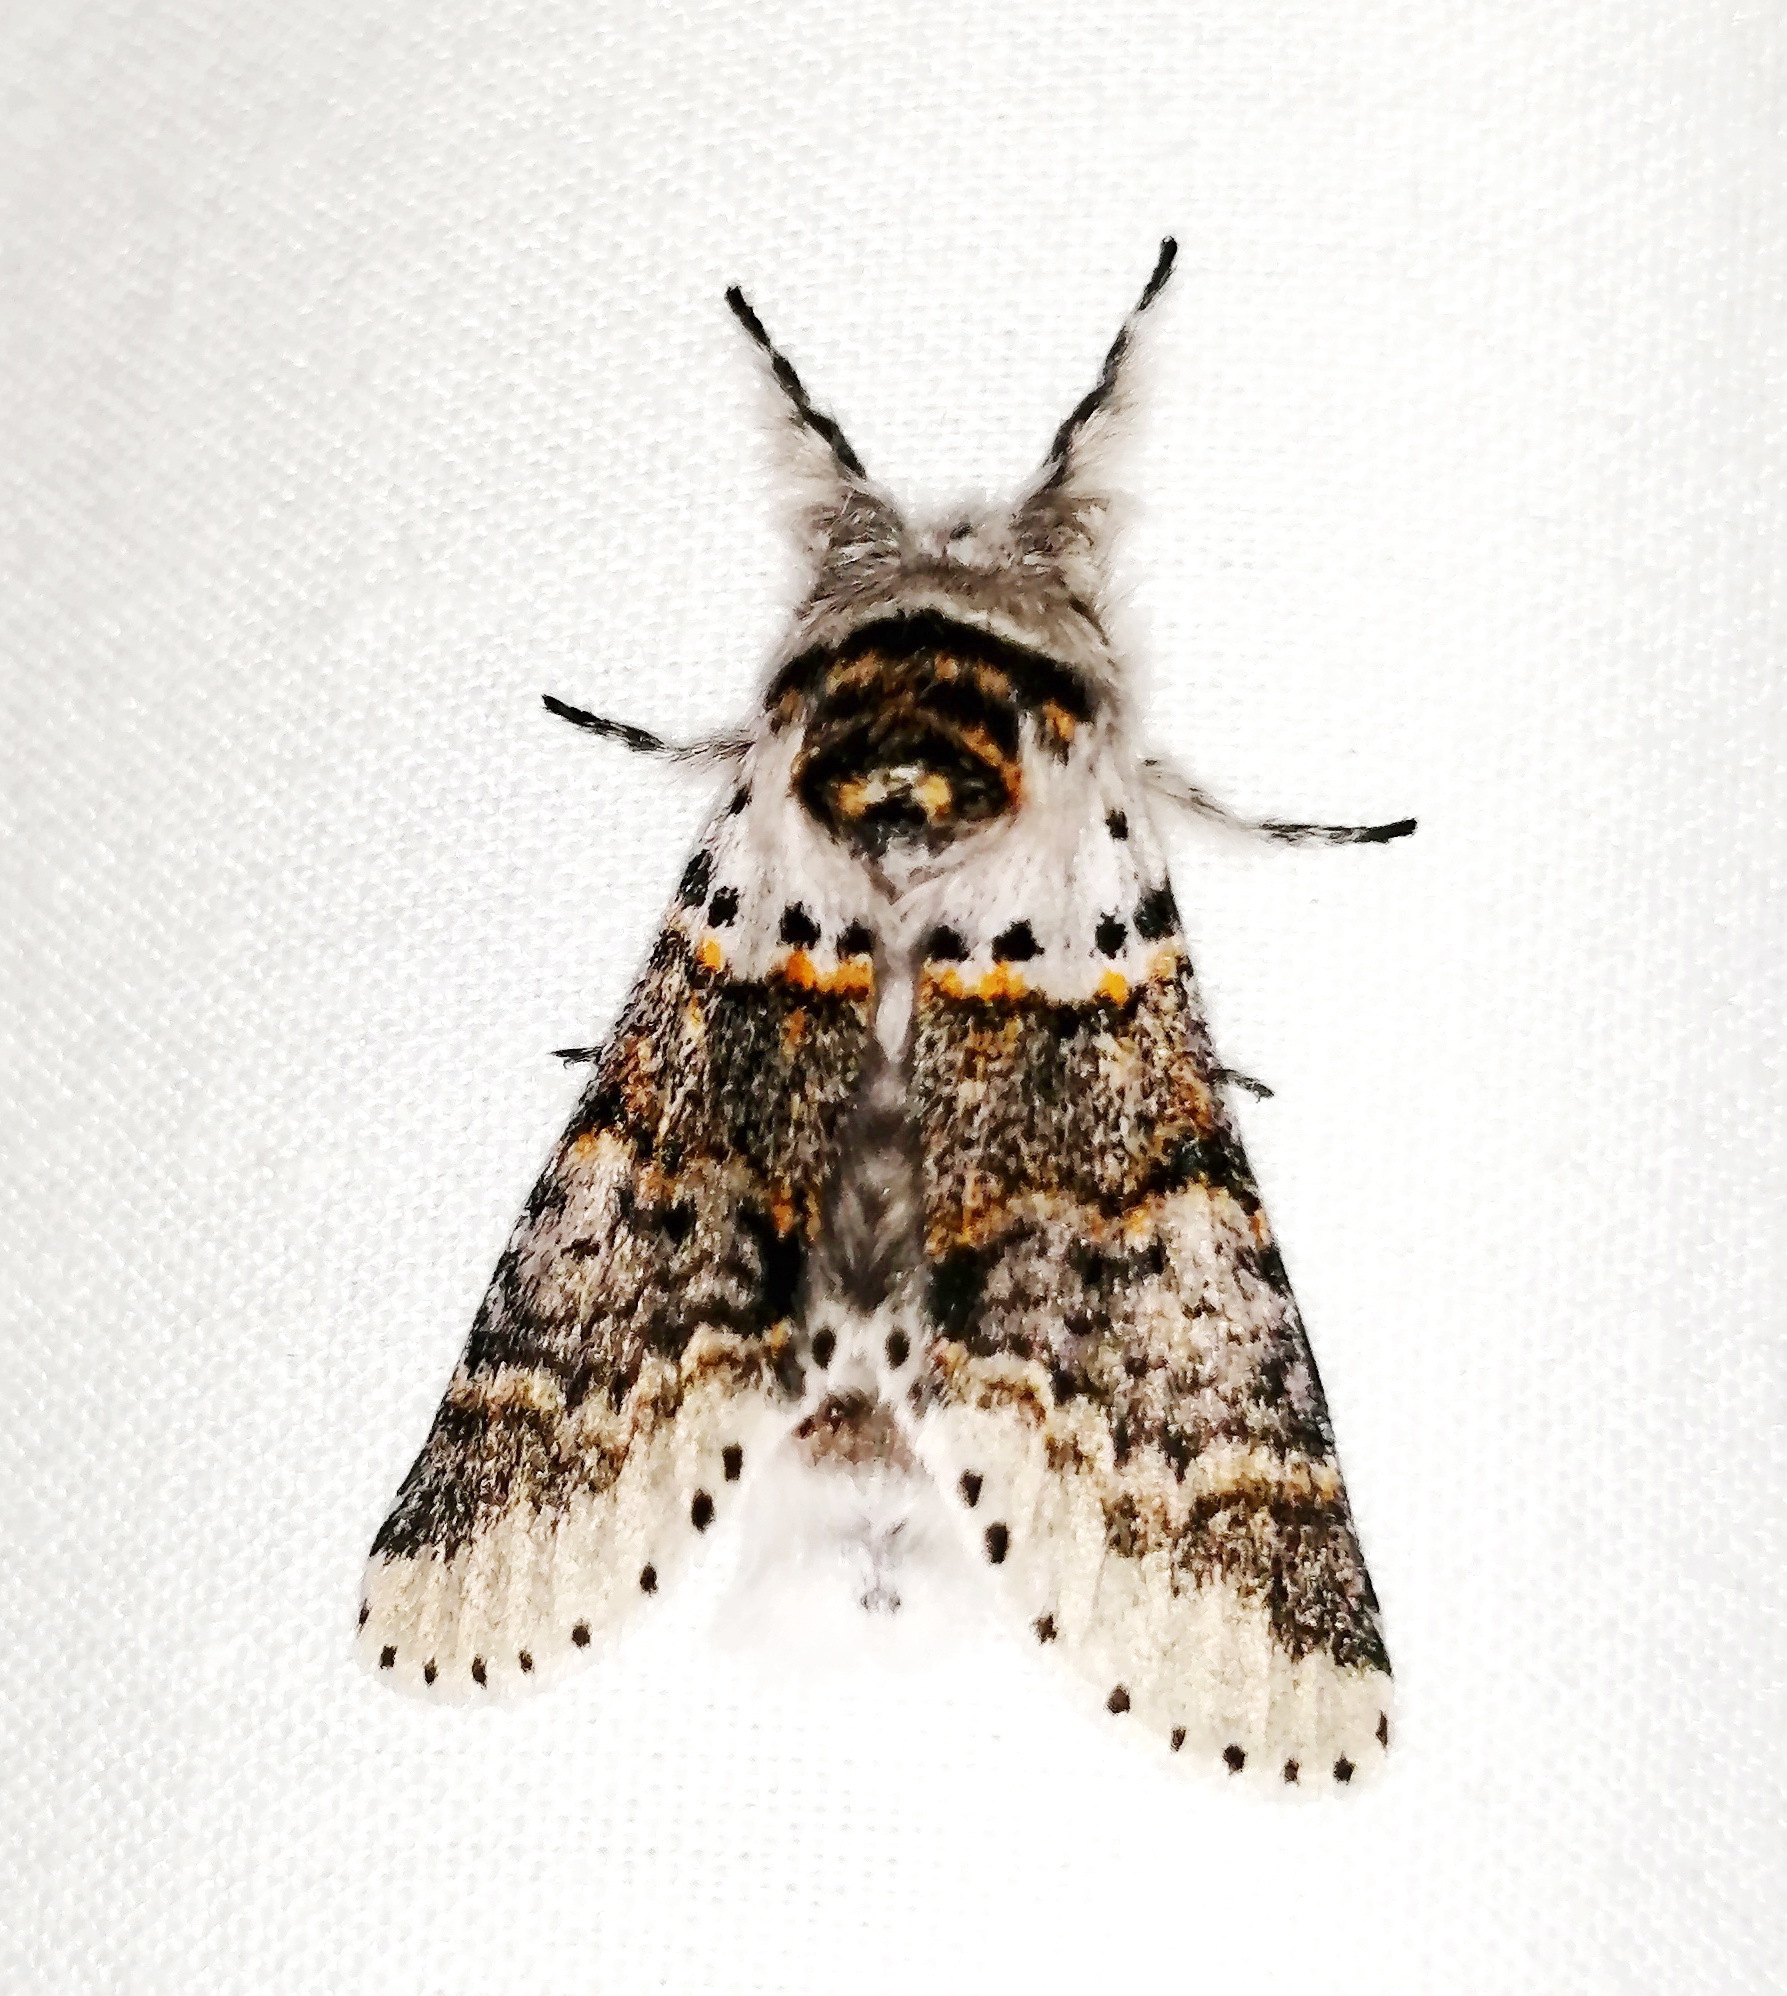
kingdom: Animalia
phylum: Arthropoda
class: Insecta
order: Lepidoptera
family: Notodontidae
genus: Furcula
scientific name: Furcula occidentalis
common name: Western furcula moth
